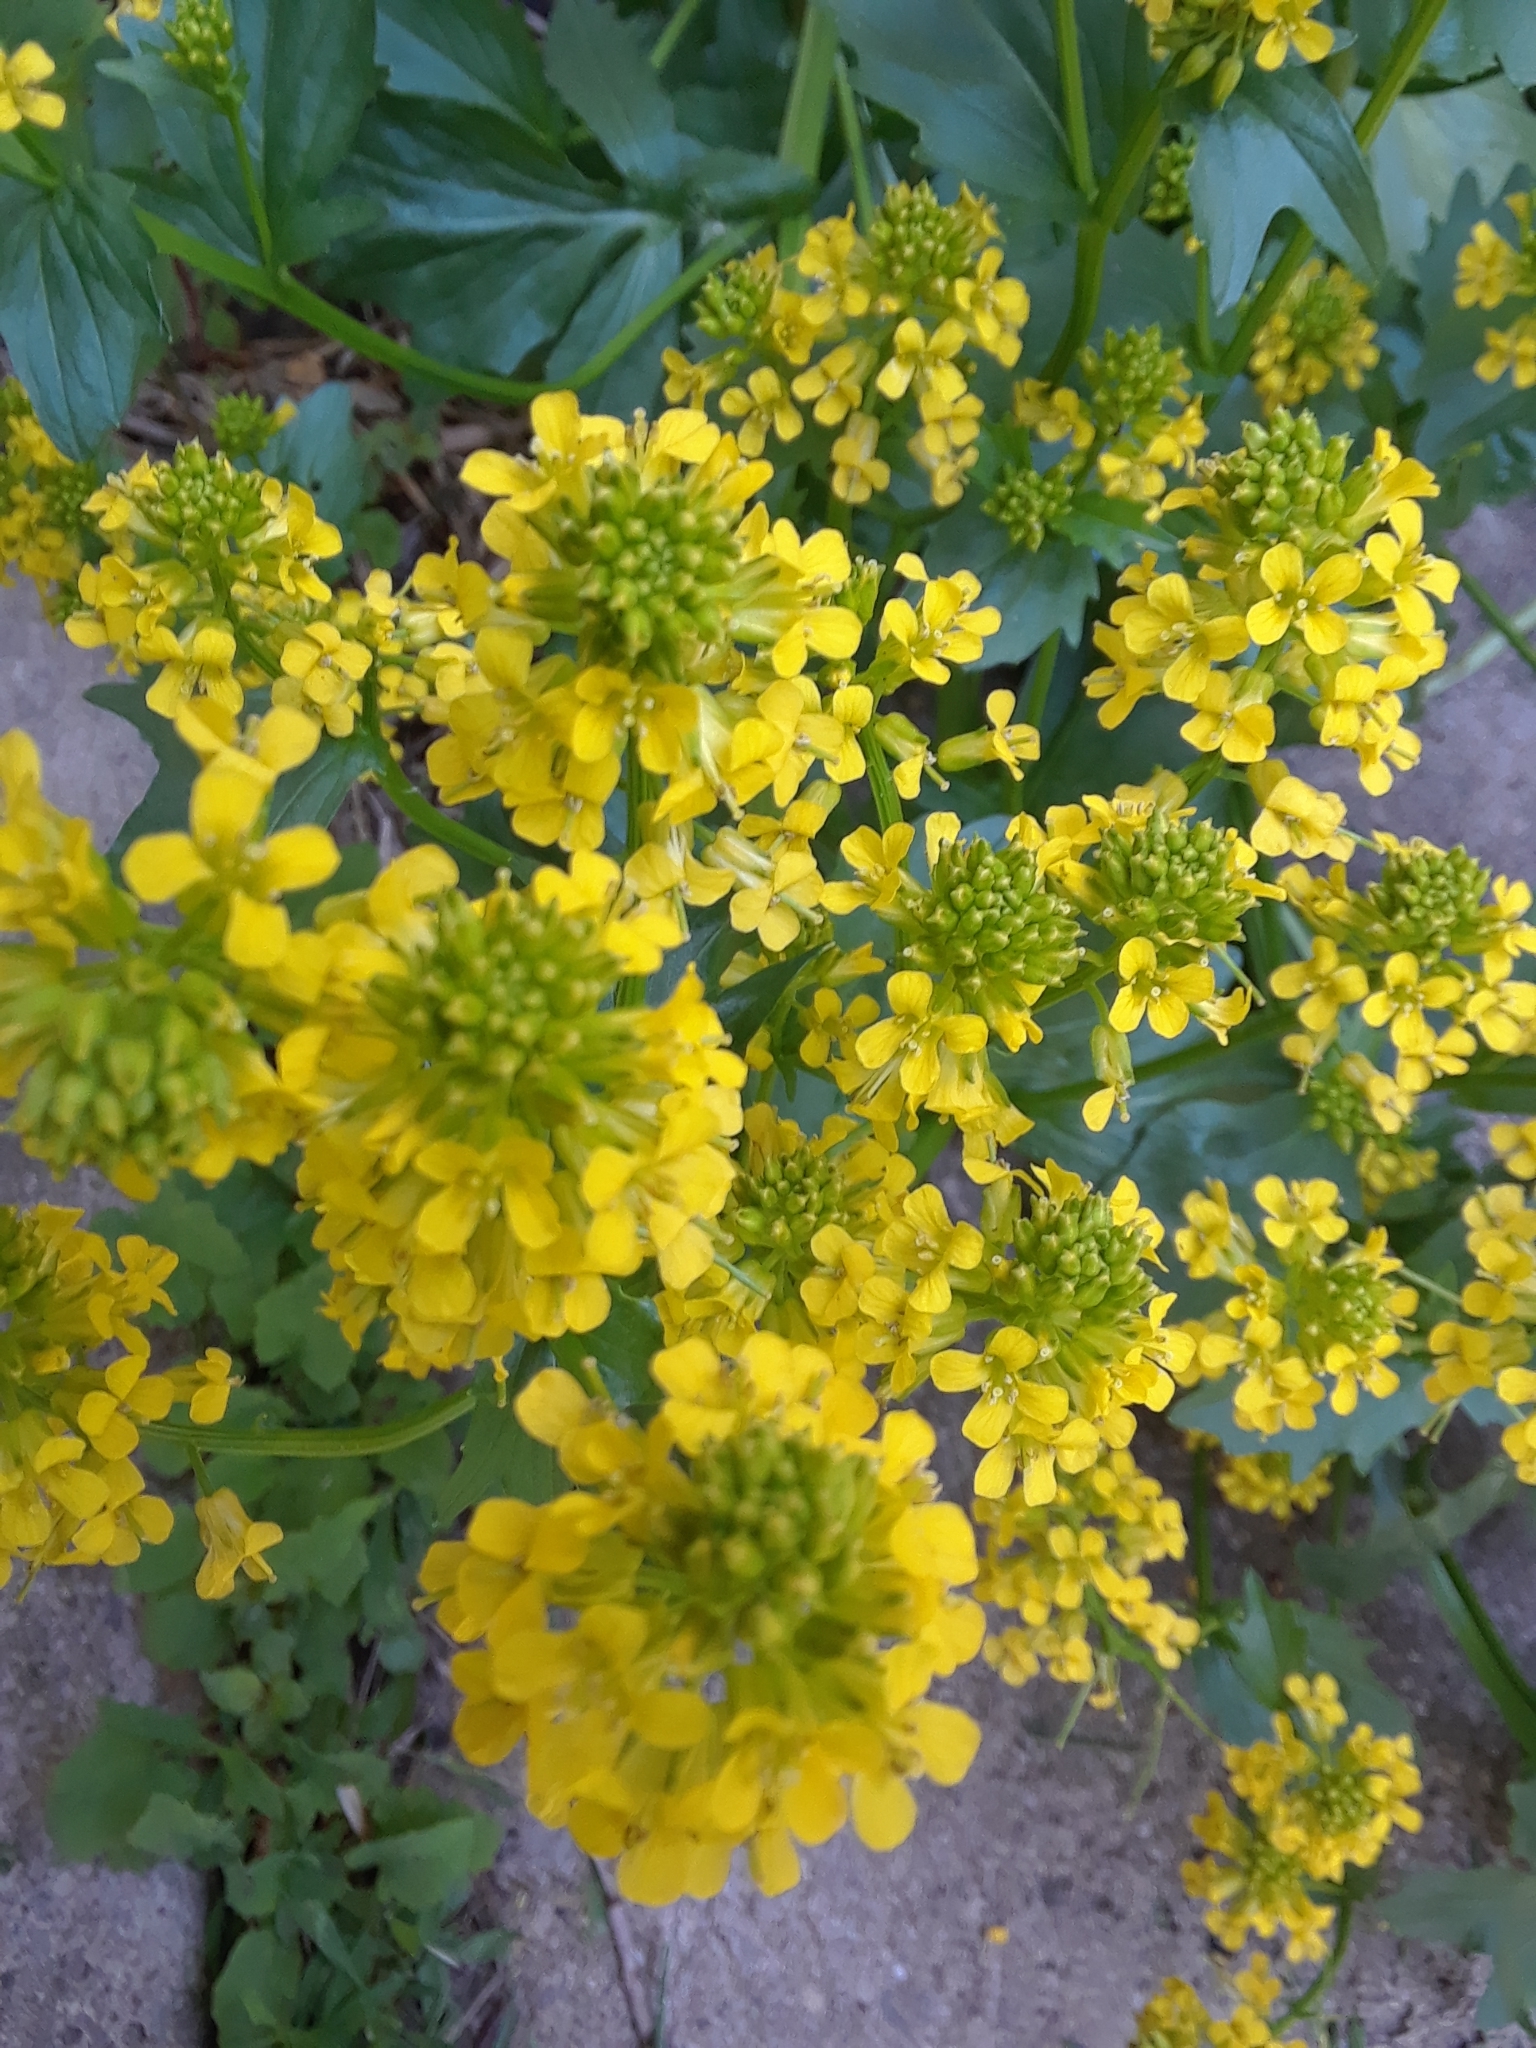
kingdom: Plantae
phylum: Tracheophyta
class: Magnoliopsida
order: Brassicales
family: Brassicaceae
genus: Barbarea
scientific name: Barbarea vulgaris
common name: Cressy-greens
